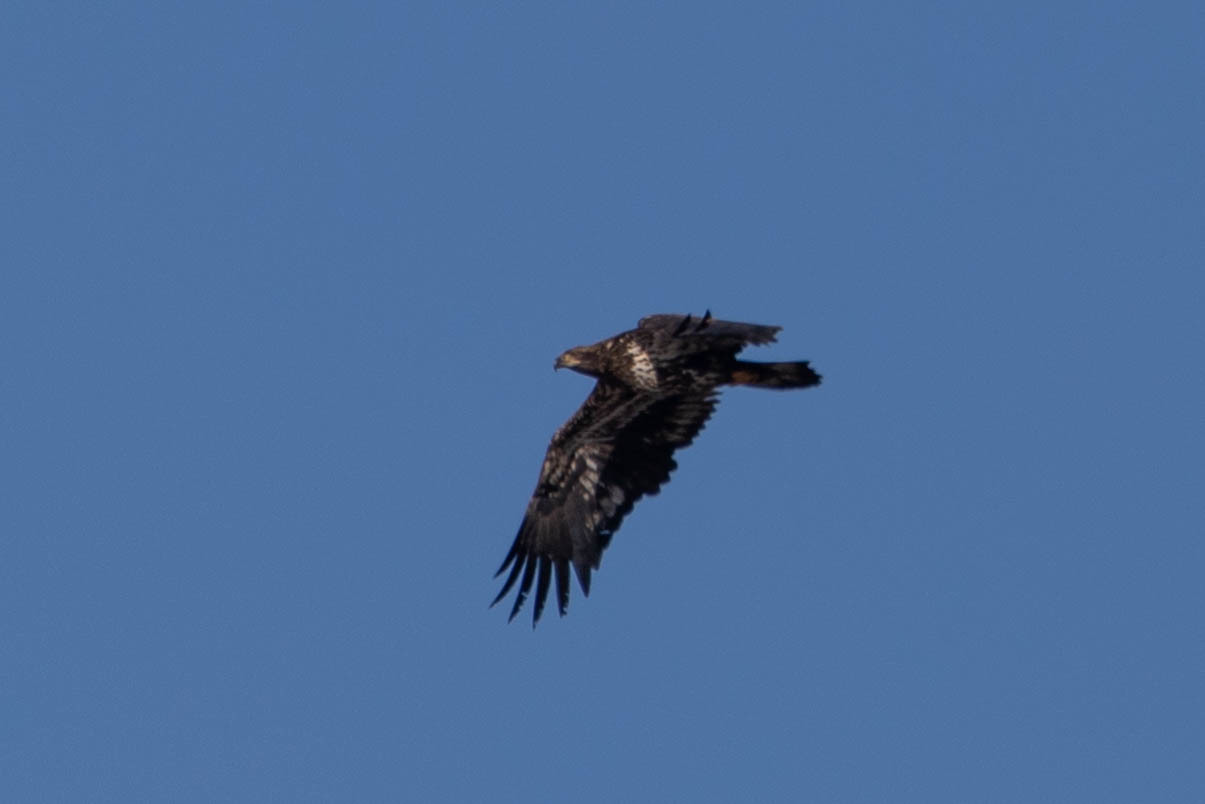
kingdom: Animalia
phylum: Chordata
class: Aves
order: Accipitriformes
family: Accipitridae
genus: Haliaeetus
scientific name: Haliaeetus leucocephalus
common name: Bald eagle
